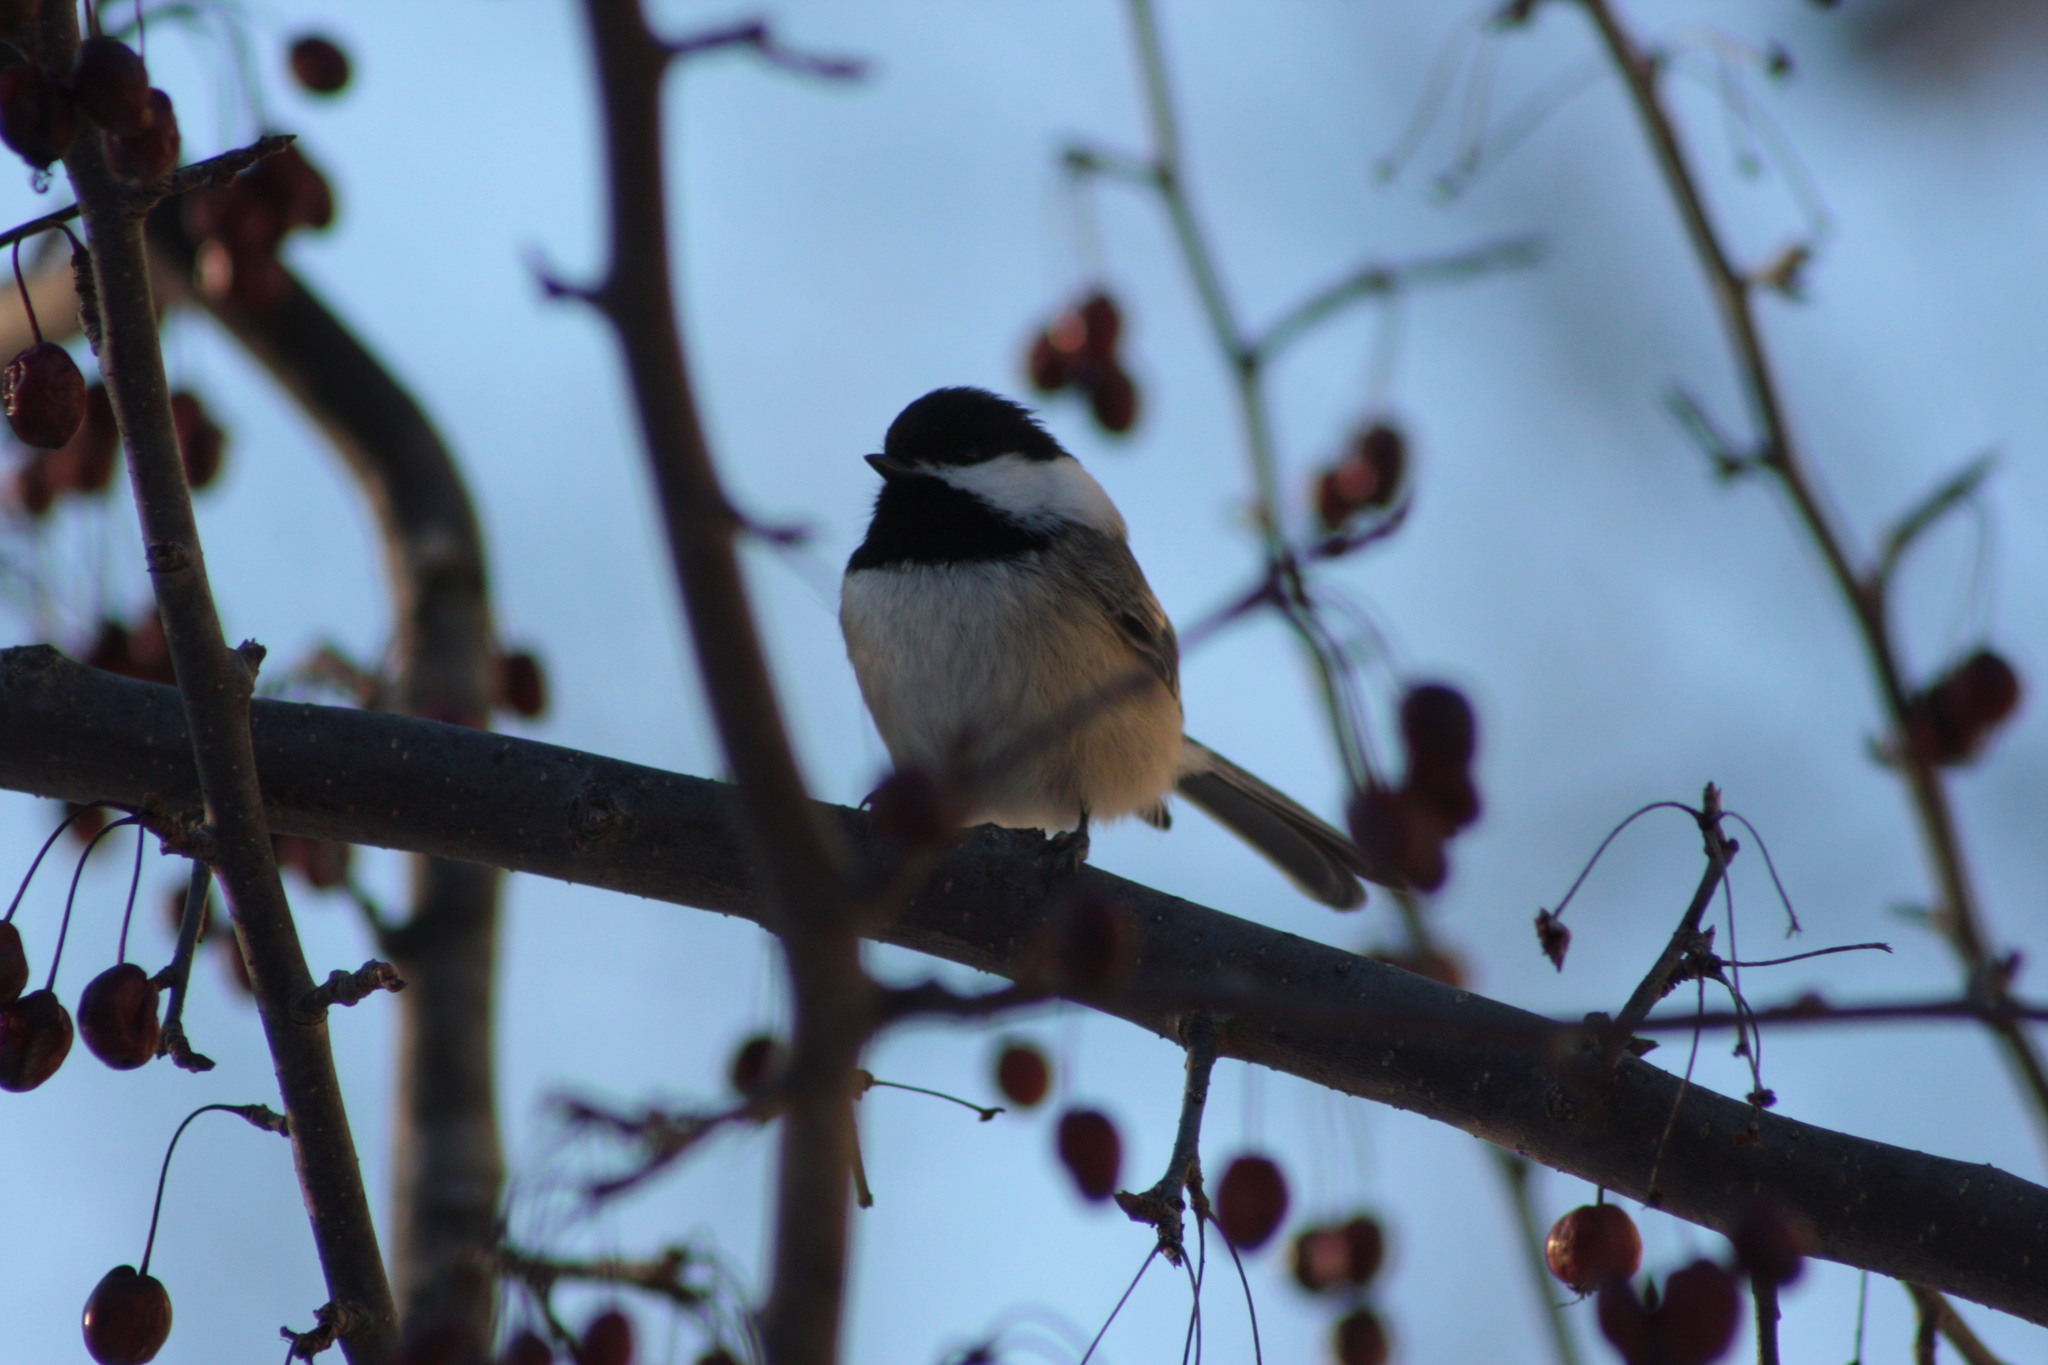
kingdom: Animalia
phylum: Chordata
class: Aves
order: Passeriformes
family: Paridae
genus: Poecile
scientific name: Poecile atricapillus
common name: Black-capped chickadee
